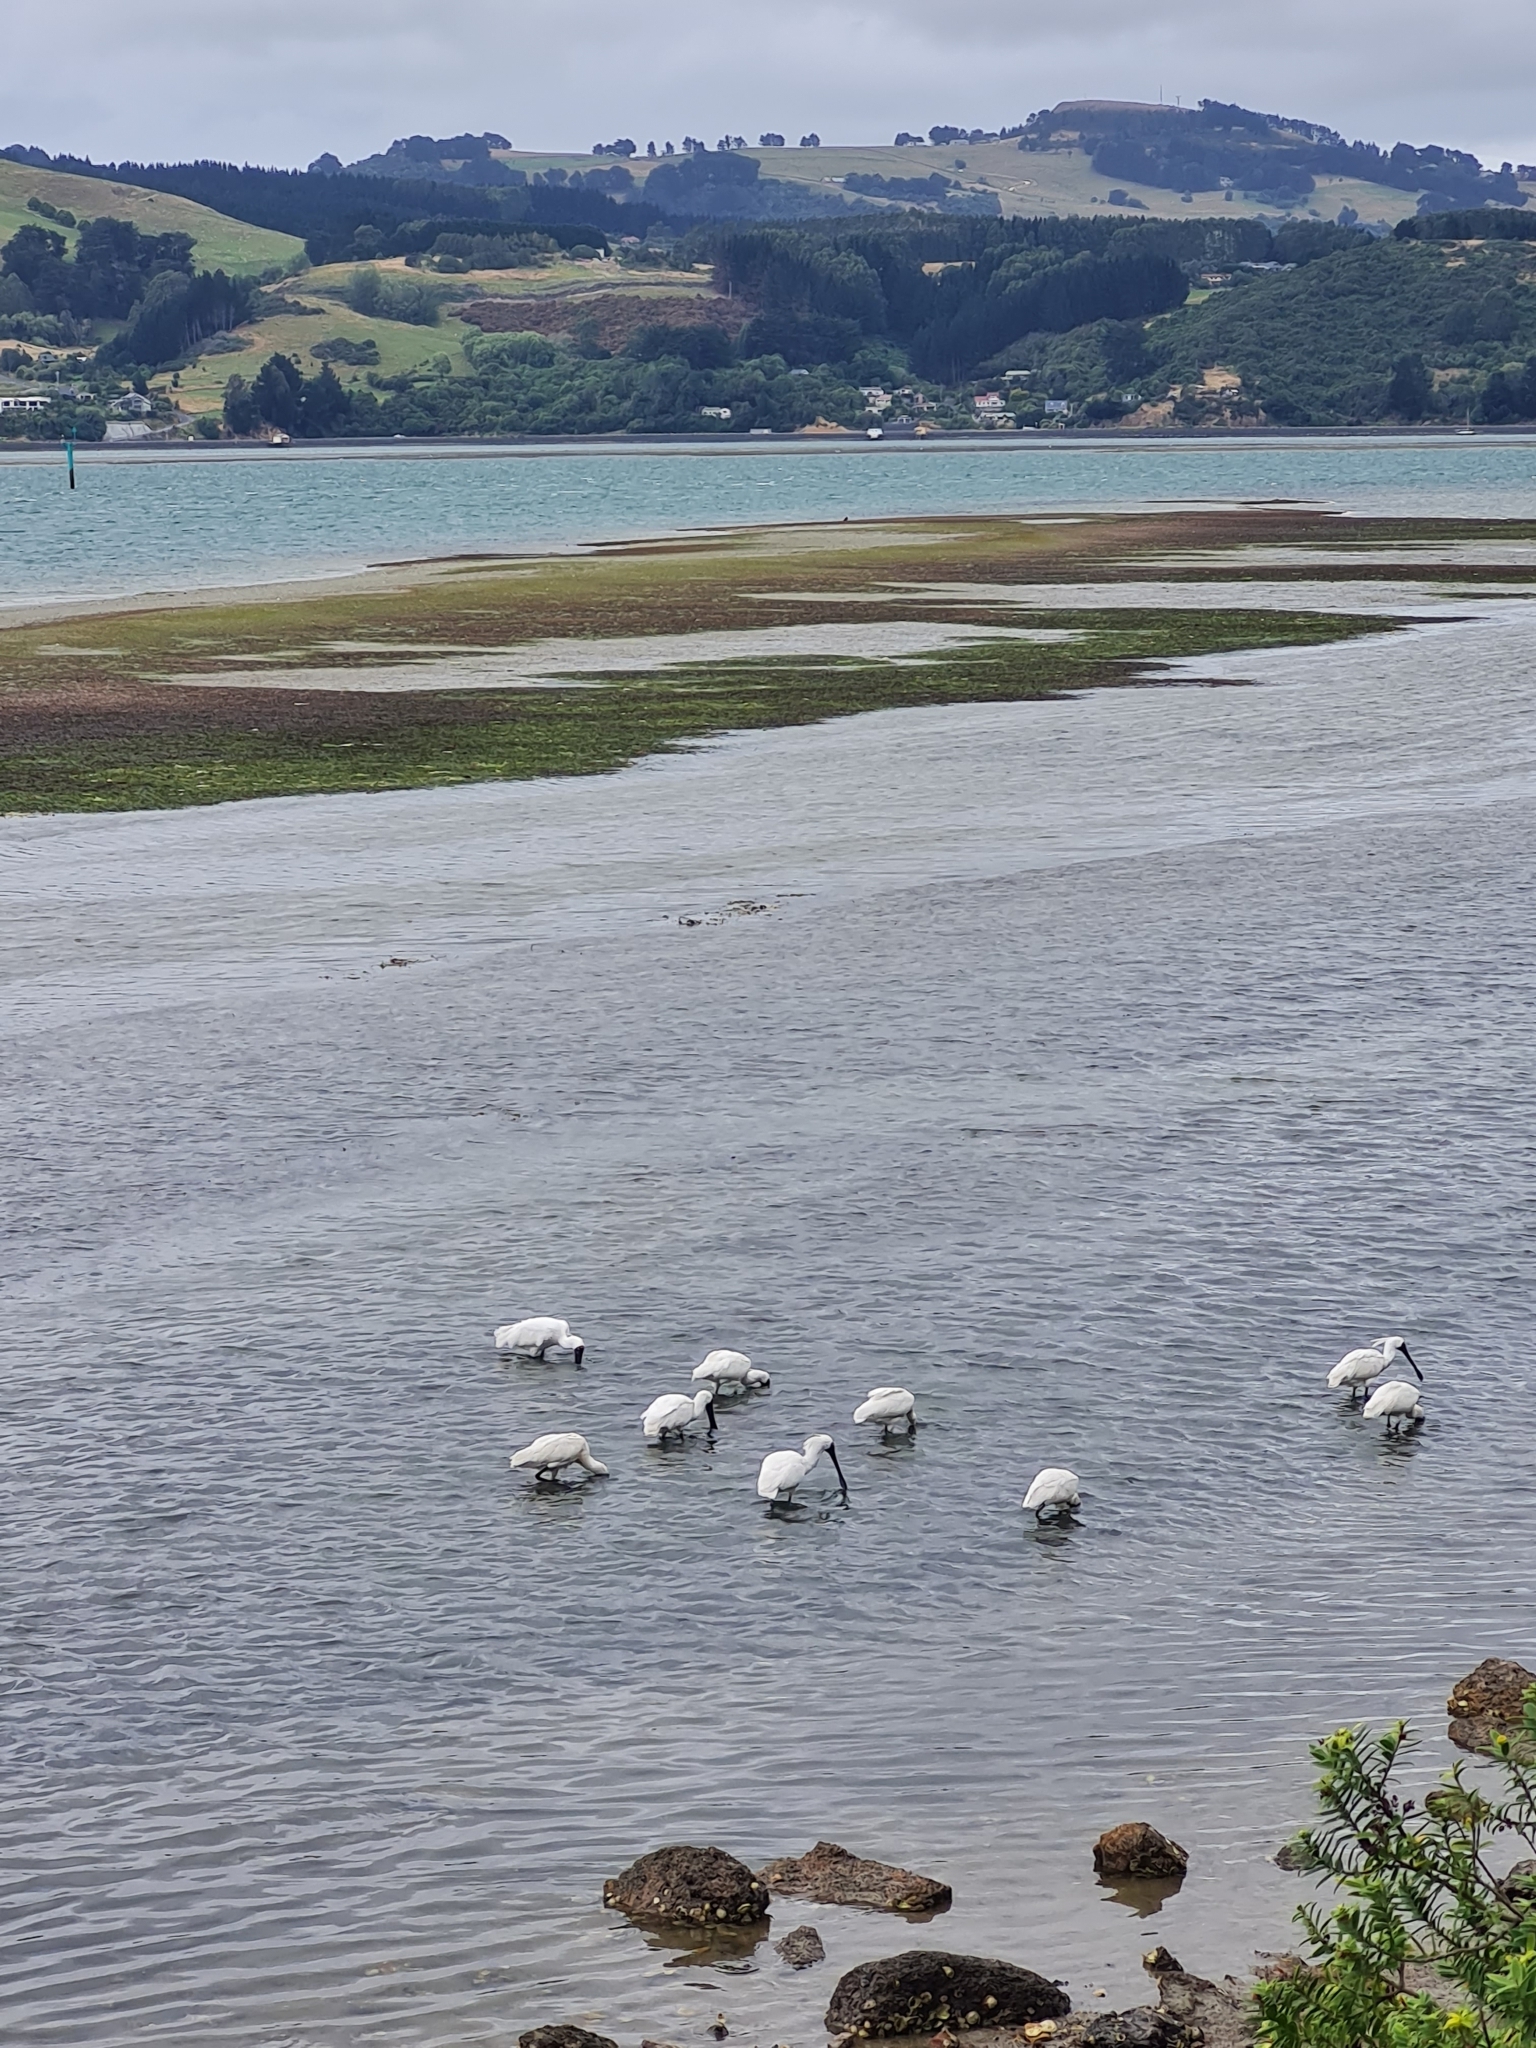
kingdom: Animalia
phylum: Chordata
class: Aves
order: Pelecaniformes
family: Threskiornithidae
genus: Platalea
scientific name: Platalea regia
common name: Royal spoonbill
